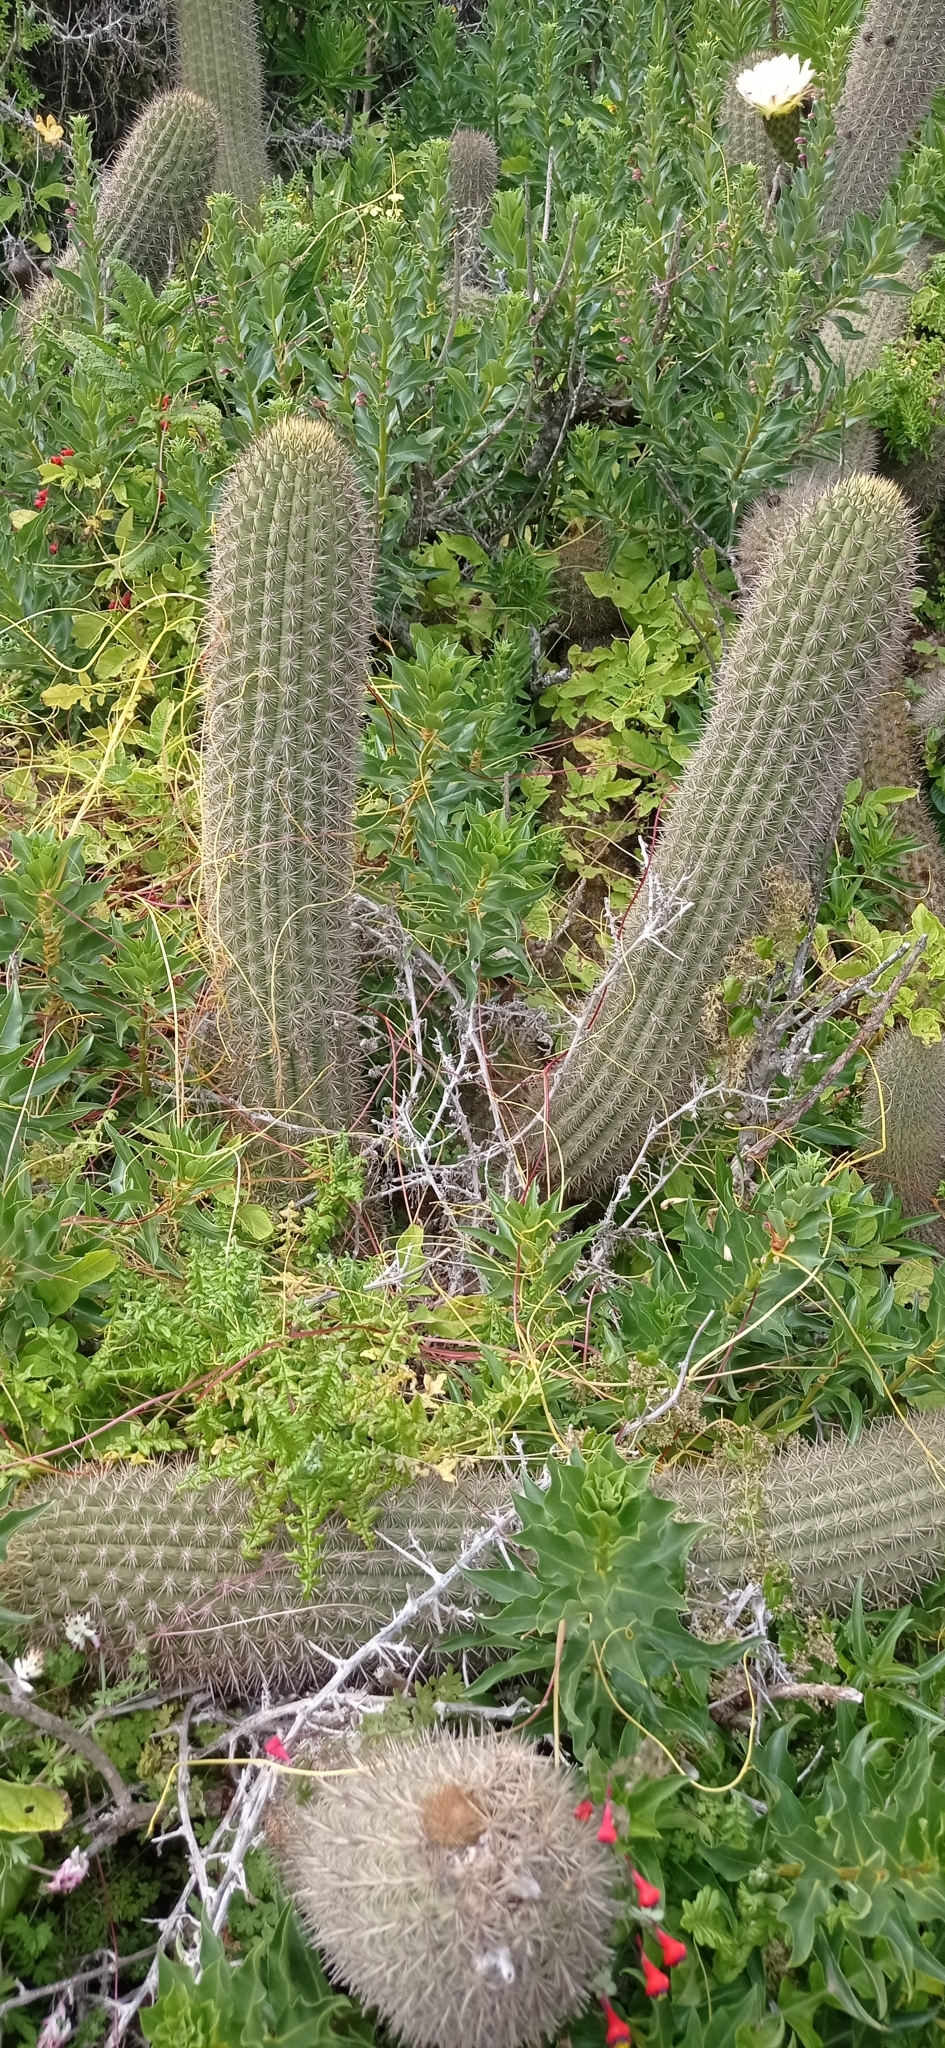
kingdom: Plantae
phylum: Tracheophyta
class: Magnoliopsida
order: Caryophyllales
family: Cactaceae
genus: Leucostele
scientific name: Leucostele litoralis
